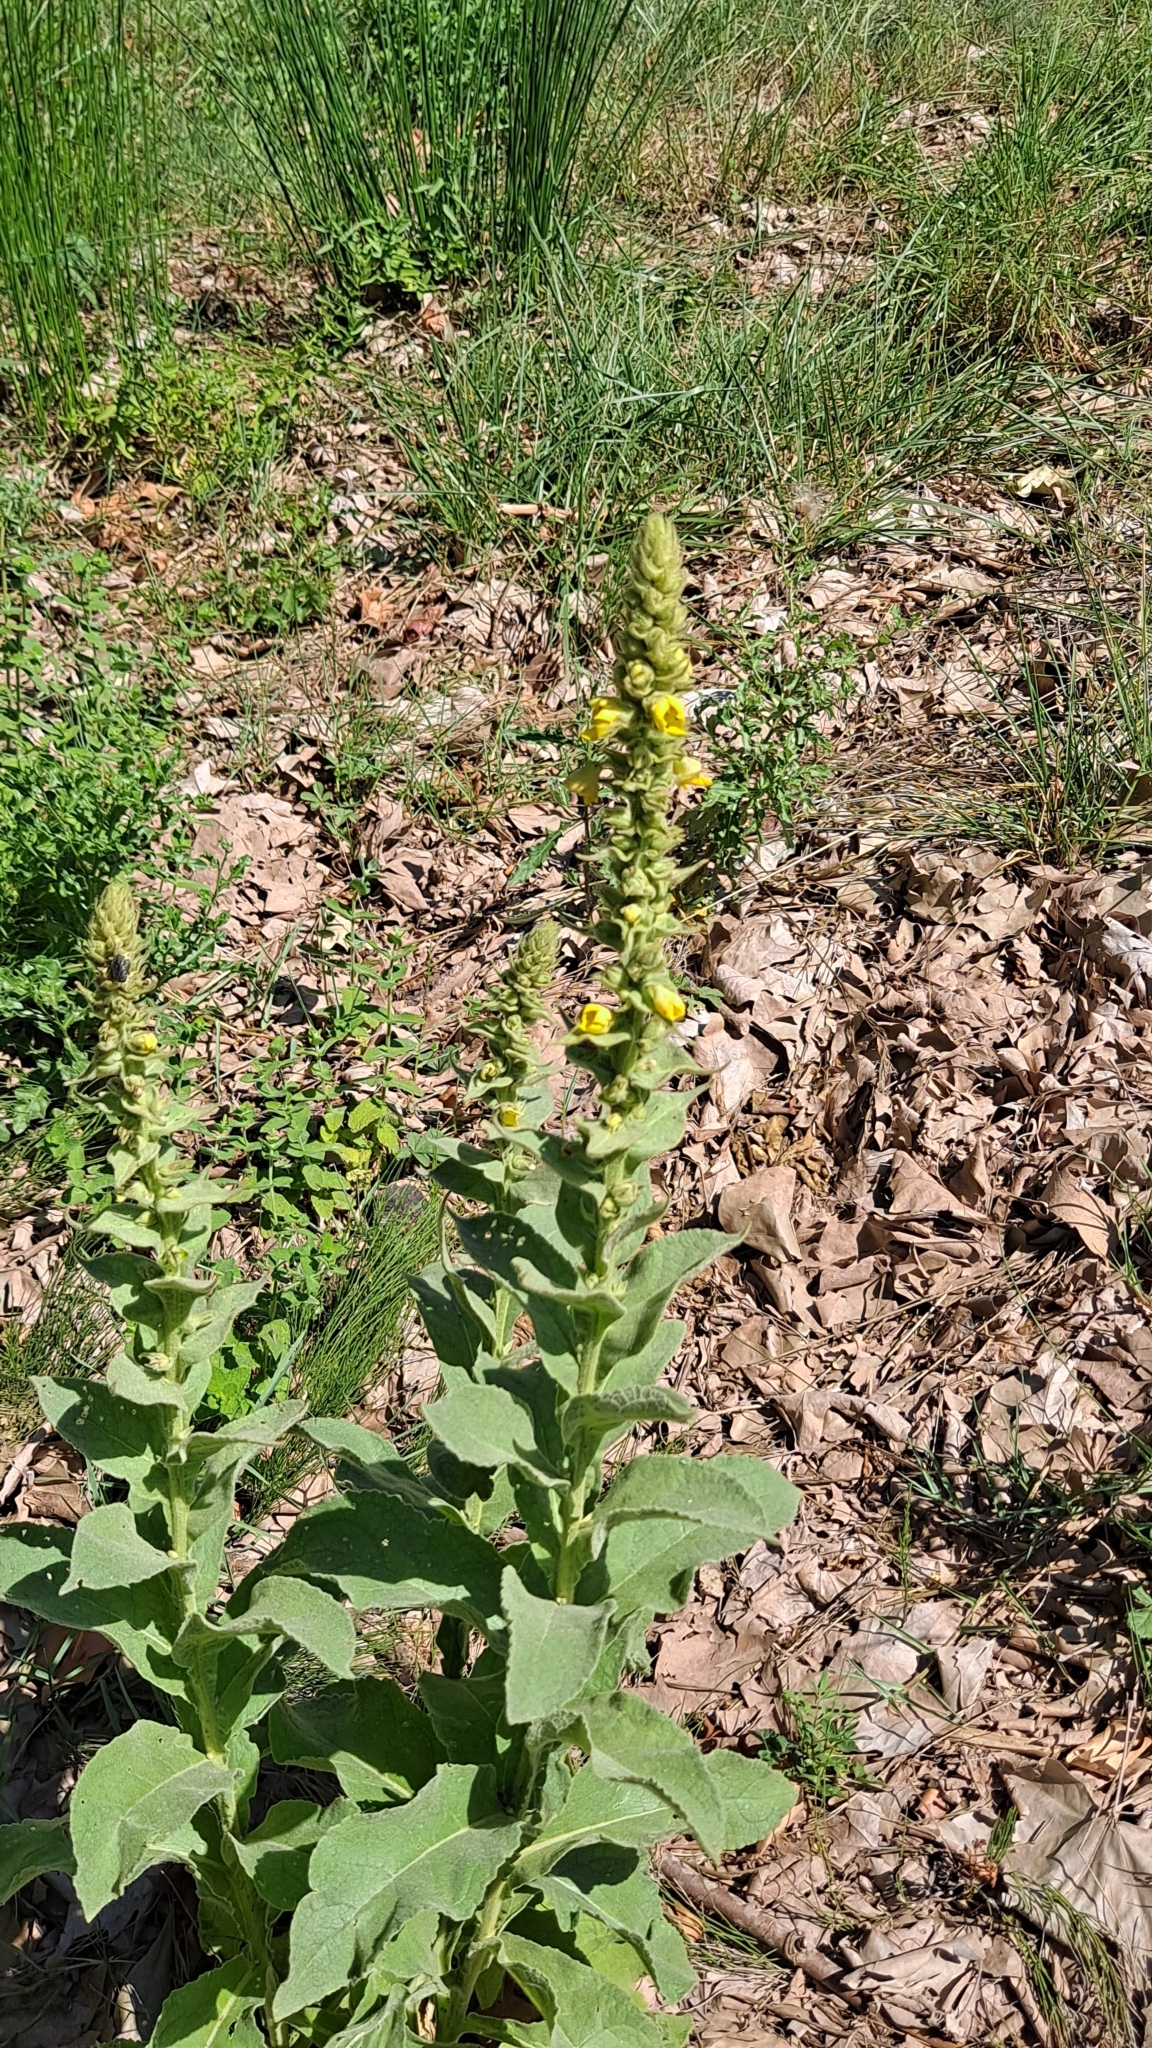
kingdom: Plantae
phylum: Tracheophyta
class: Magnoliopsida
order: Lamiales
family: Scrophulariaceae
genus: Verbascum
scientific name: Verbascum thapsus
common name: Common mullein
